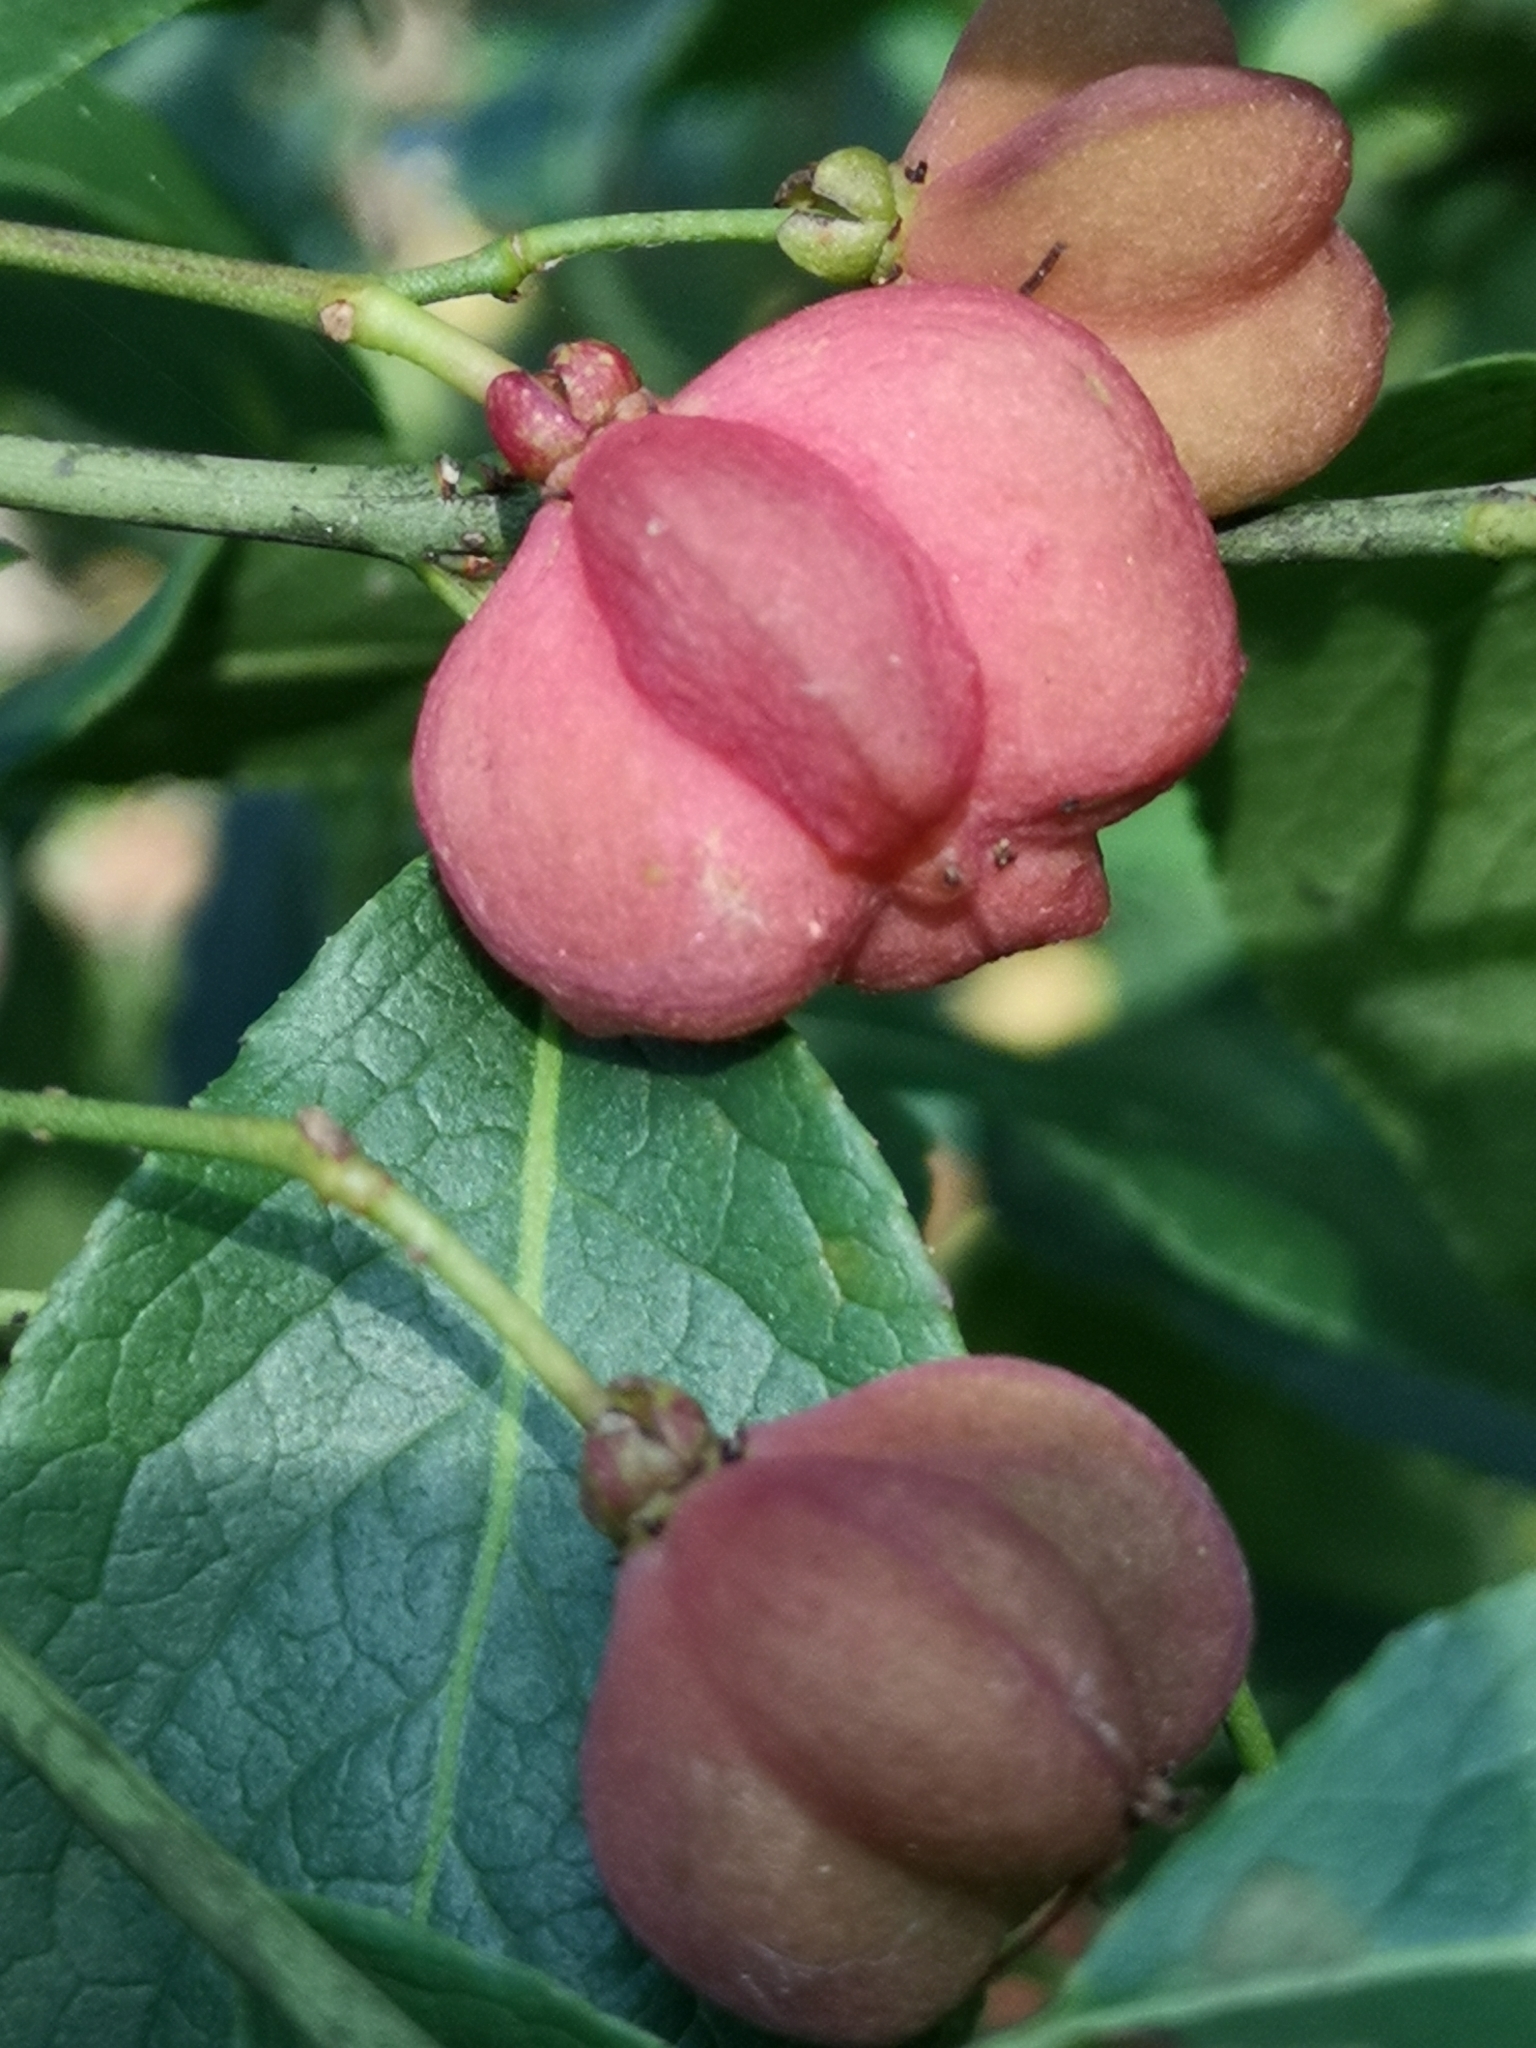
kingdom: Plantae
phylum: Tracheophyta
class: Magnoliopsida
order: Celastrales
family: Celastraceae
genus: Euonymus
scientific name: Euonymus europaeus
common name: Spindle
